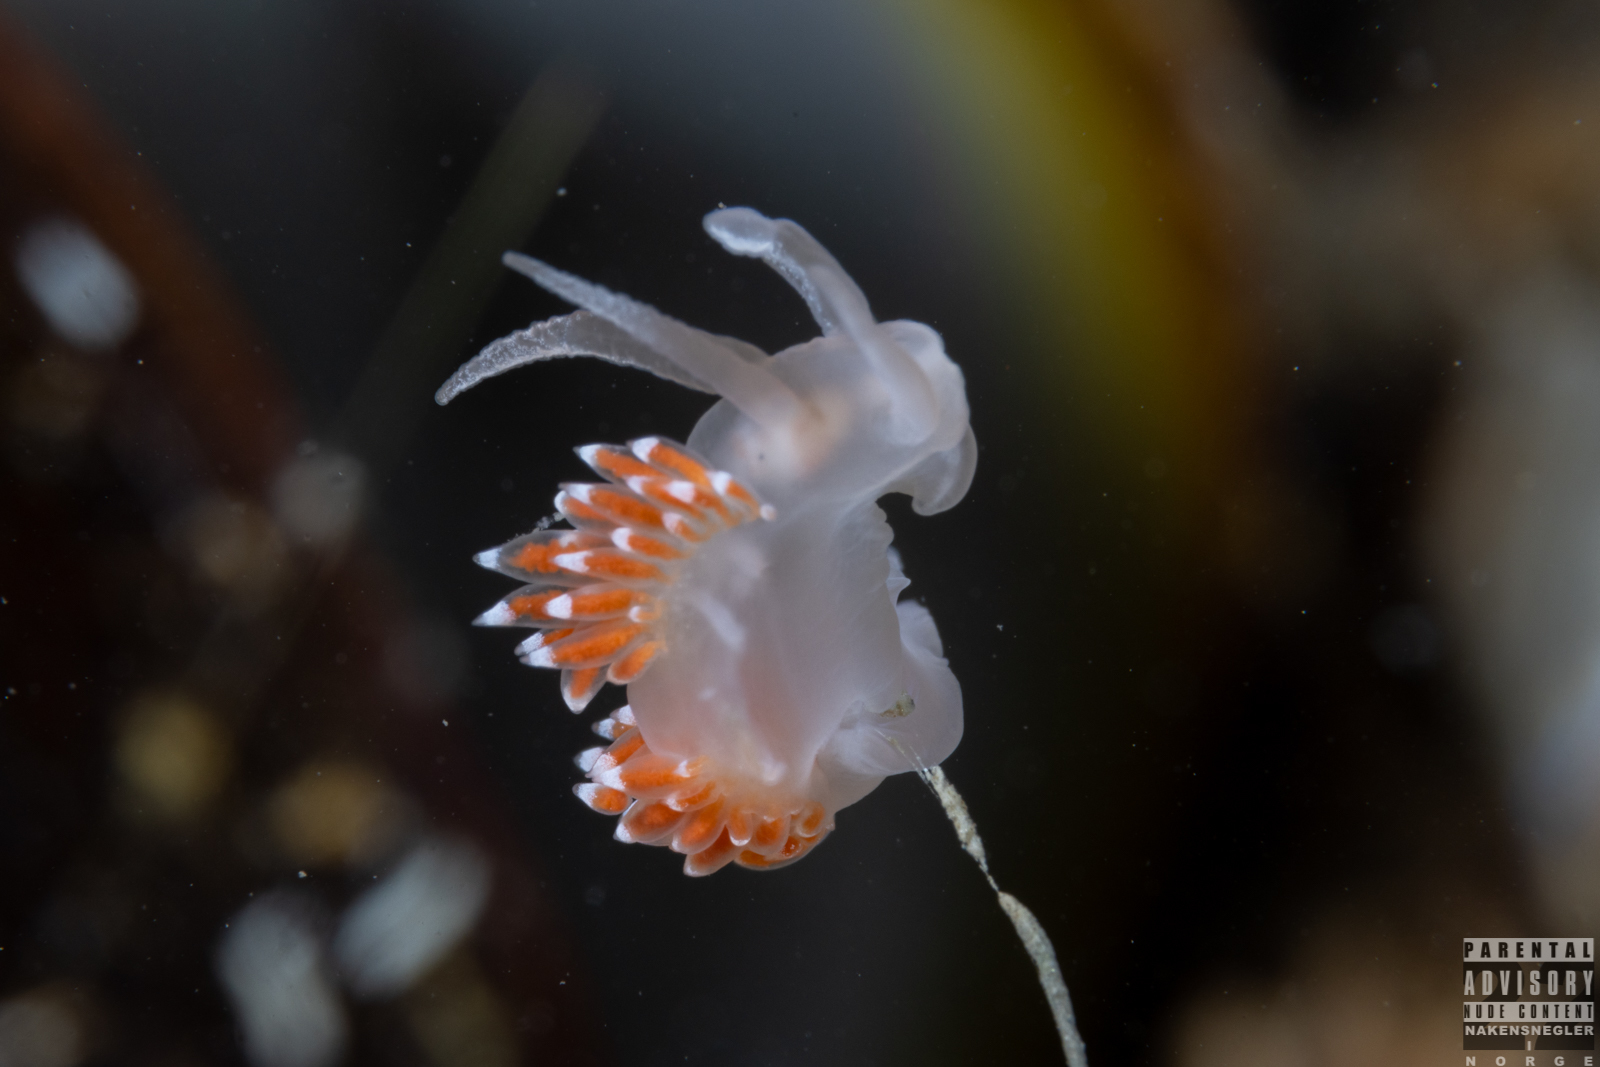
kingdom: Animalia
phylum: Mollusca
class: Gastropoda
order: Nudibranchia
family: Coryphellidae
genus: Coryphella
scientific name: Coryphella verrucosa
